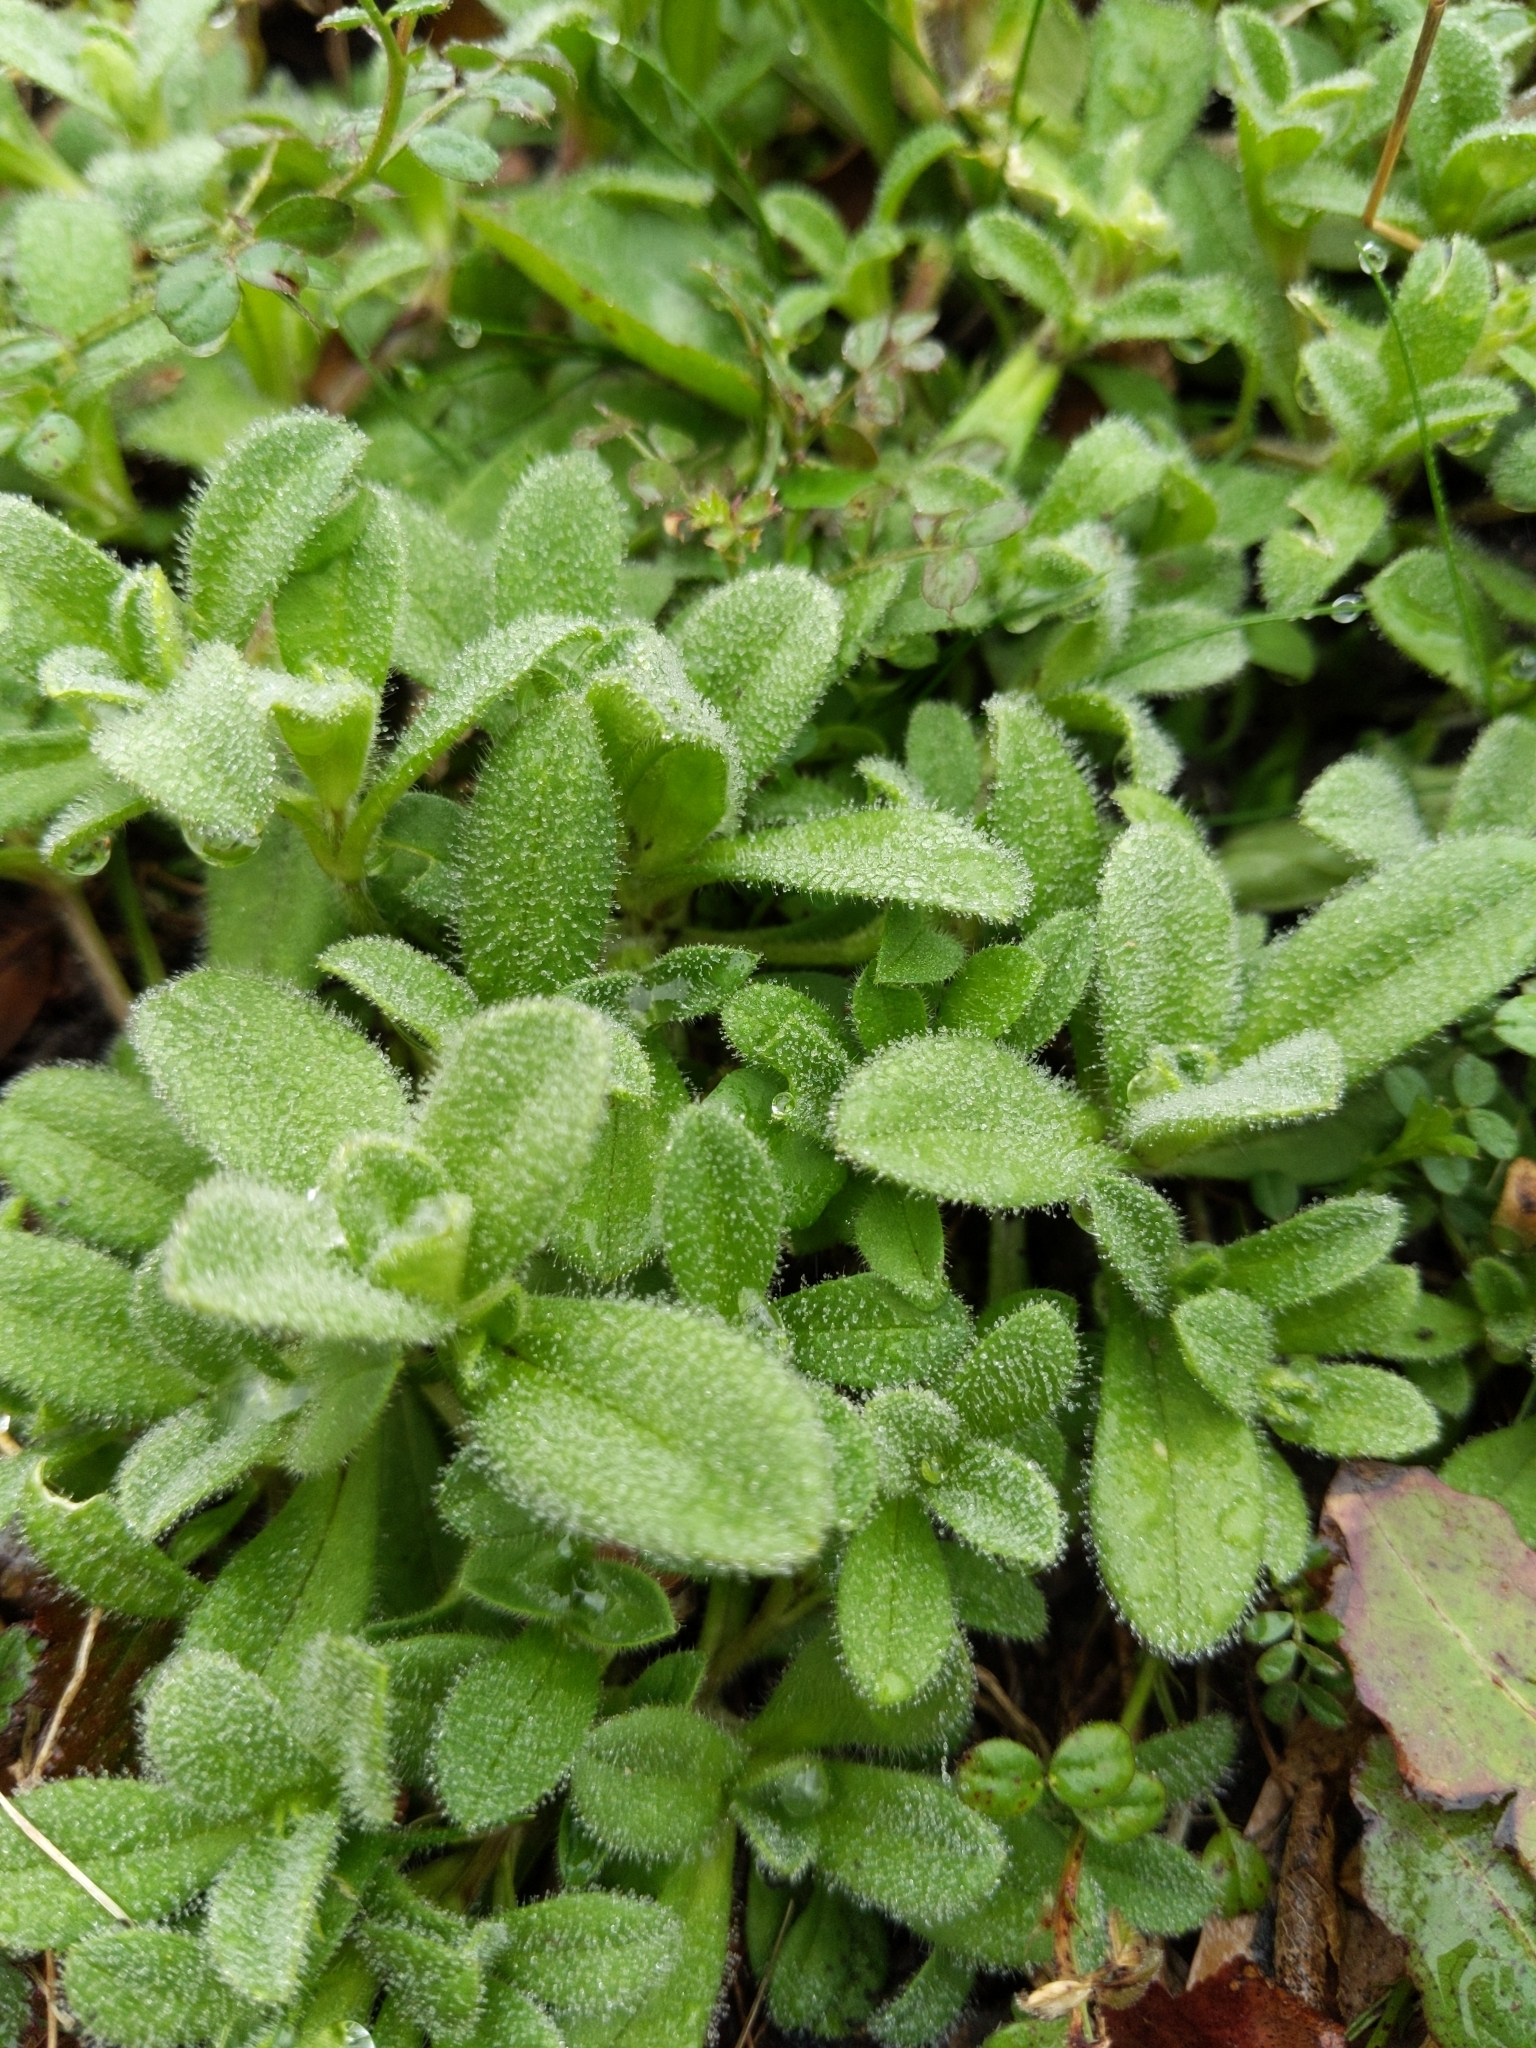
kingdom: Plantae
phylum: Tracheophyta
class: Magnoliopsida
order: Caryophyllales
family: Caryophyllaceae
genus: Cerastium
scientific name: Cerastium glomeratum
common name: Sticky chickweed
